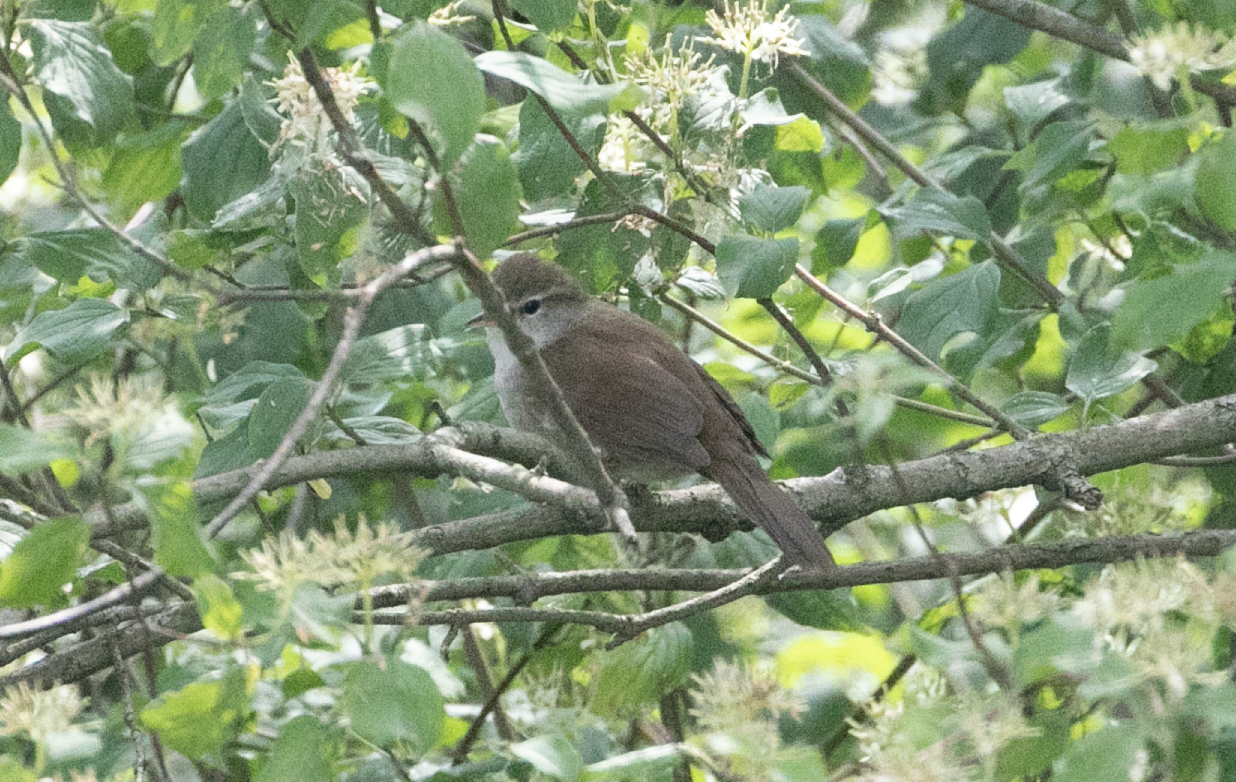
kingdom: Animalia
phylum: Chordata
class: Aves
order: Passeriformes
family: Cettiidae
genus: Cettia
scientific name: Cettia cetti
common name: Cetti's warbler
